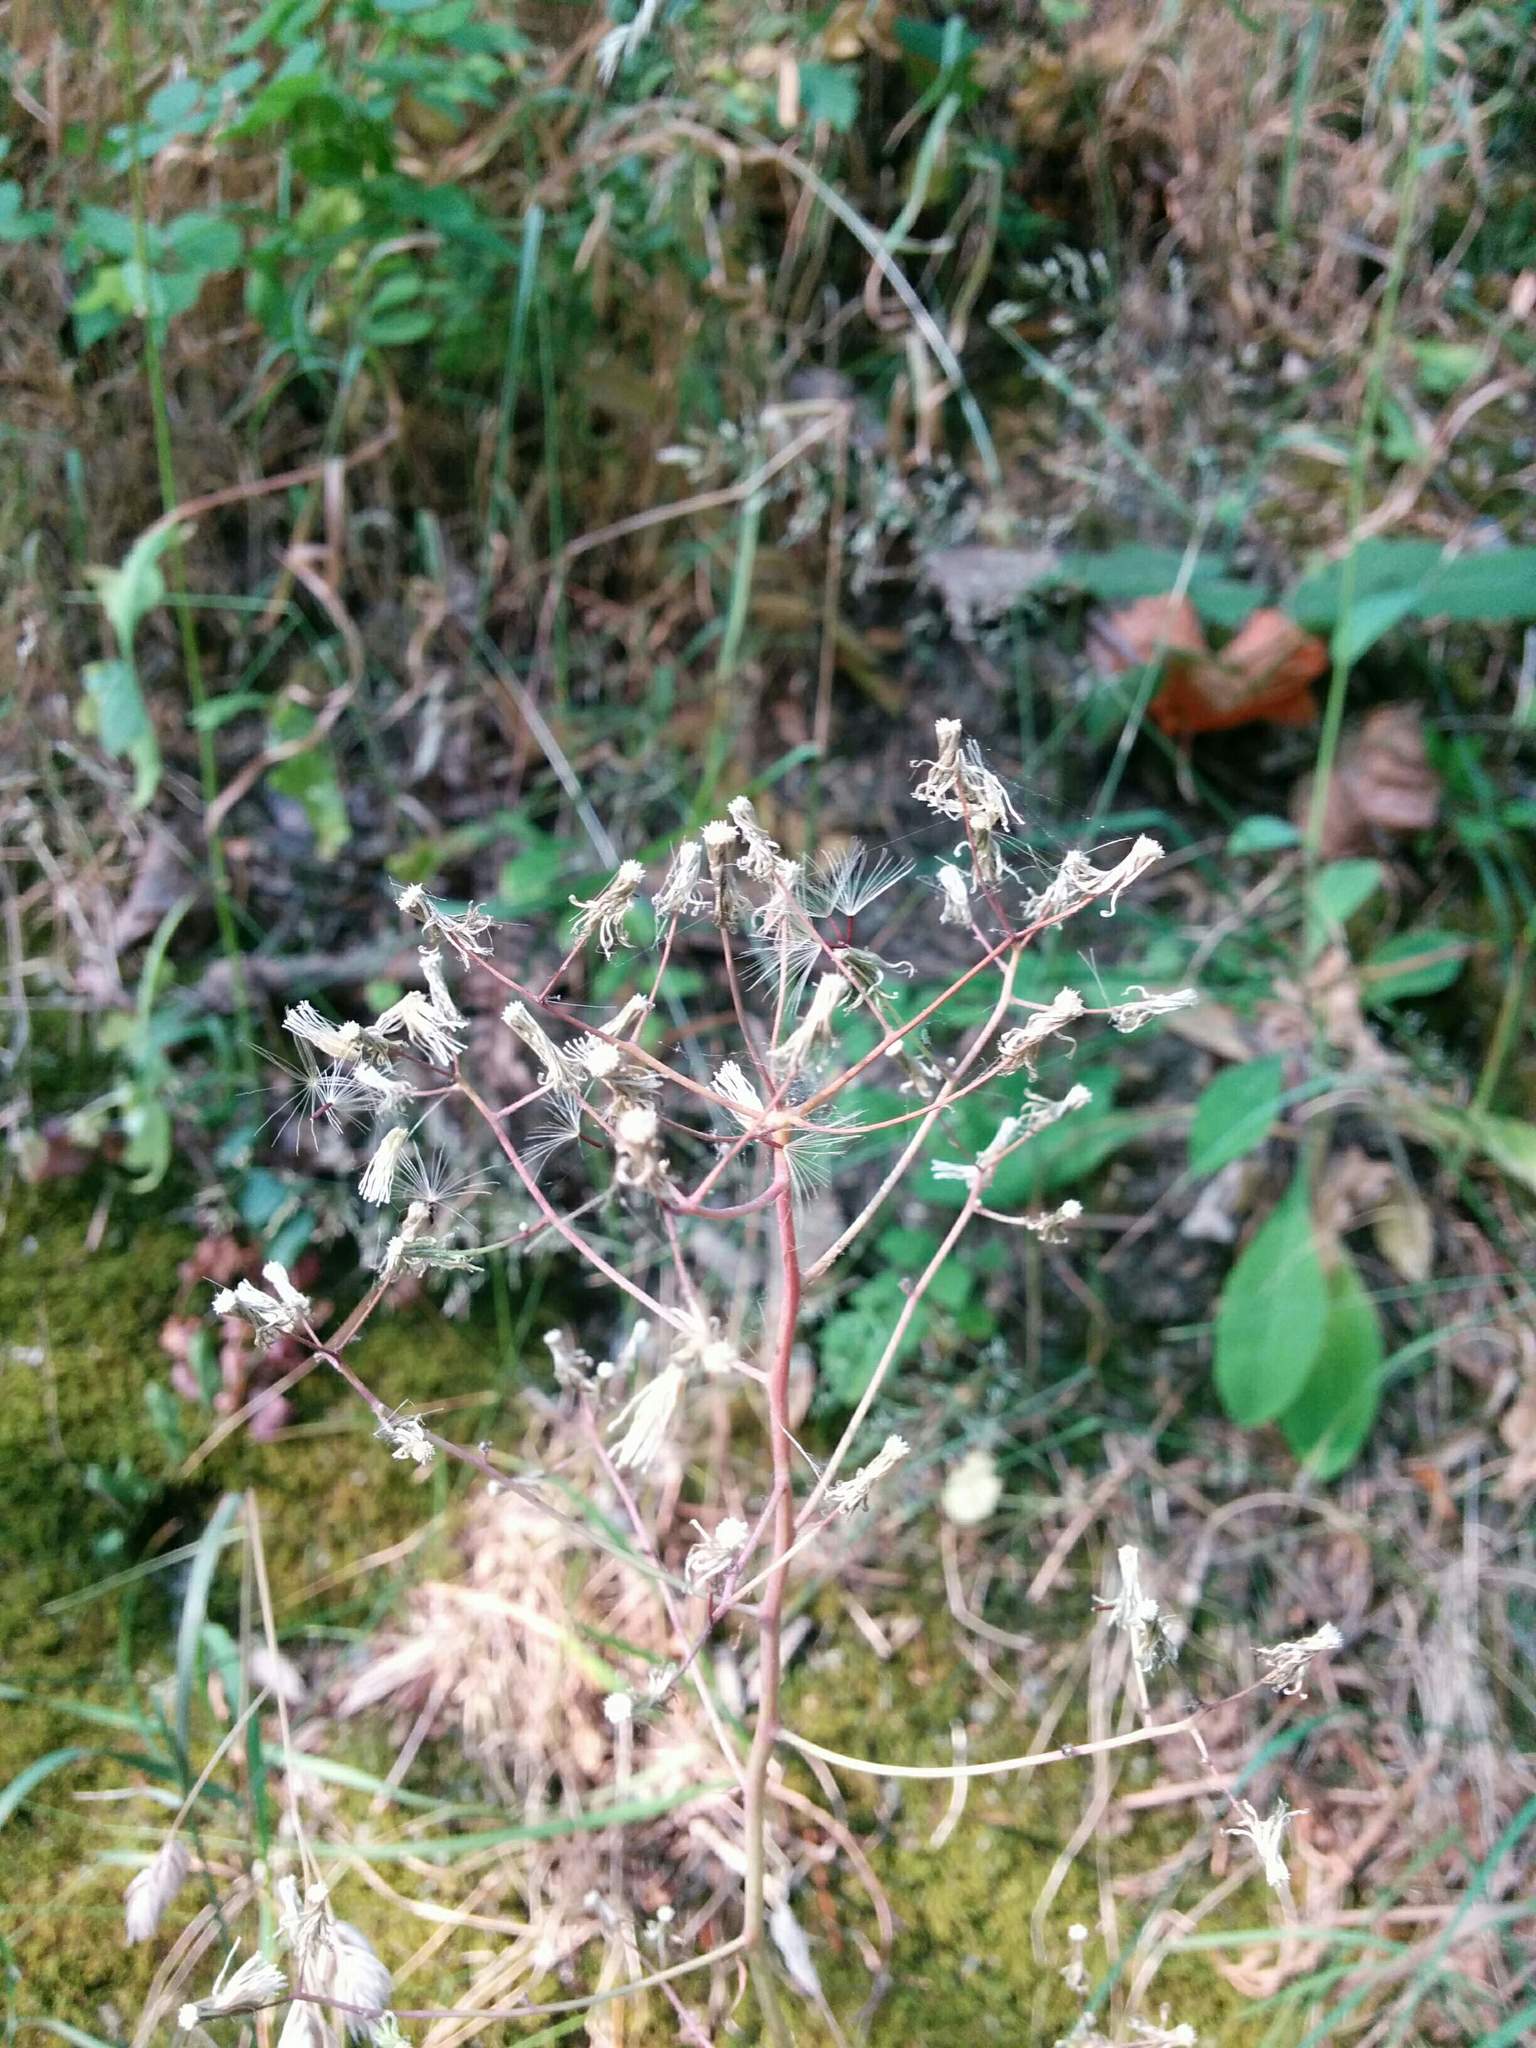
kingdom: Plantae
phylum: Tracheophyta
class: Magnoliopsida
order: Asterales
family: Asteraceae
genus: Hieracium
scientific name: Hieracium albiflorum
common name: White hawkweed
